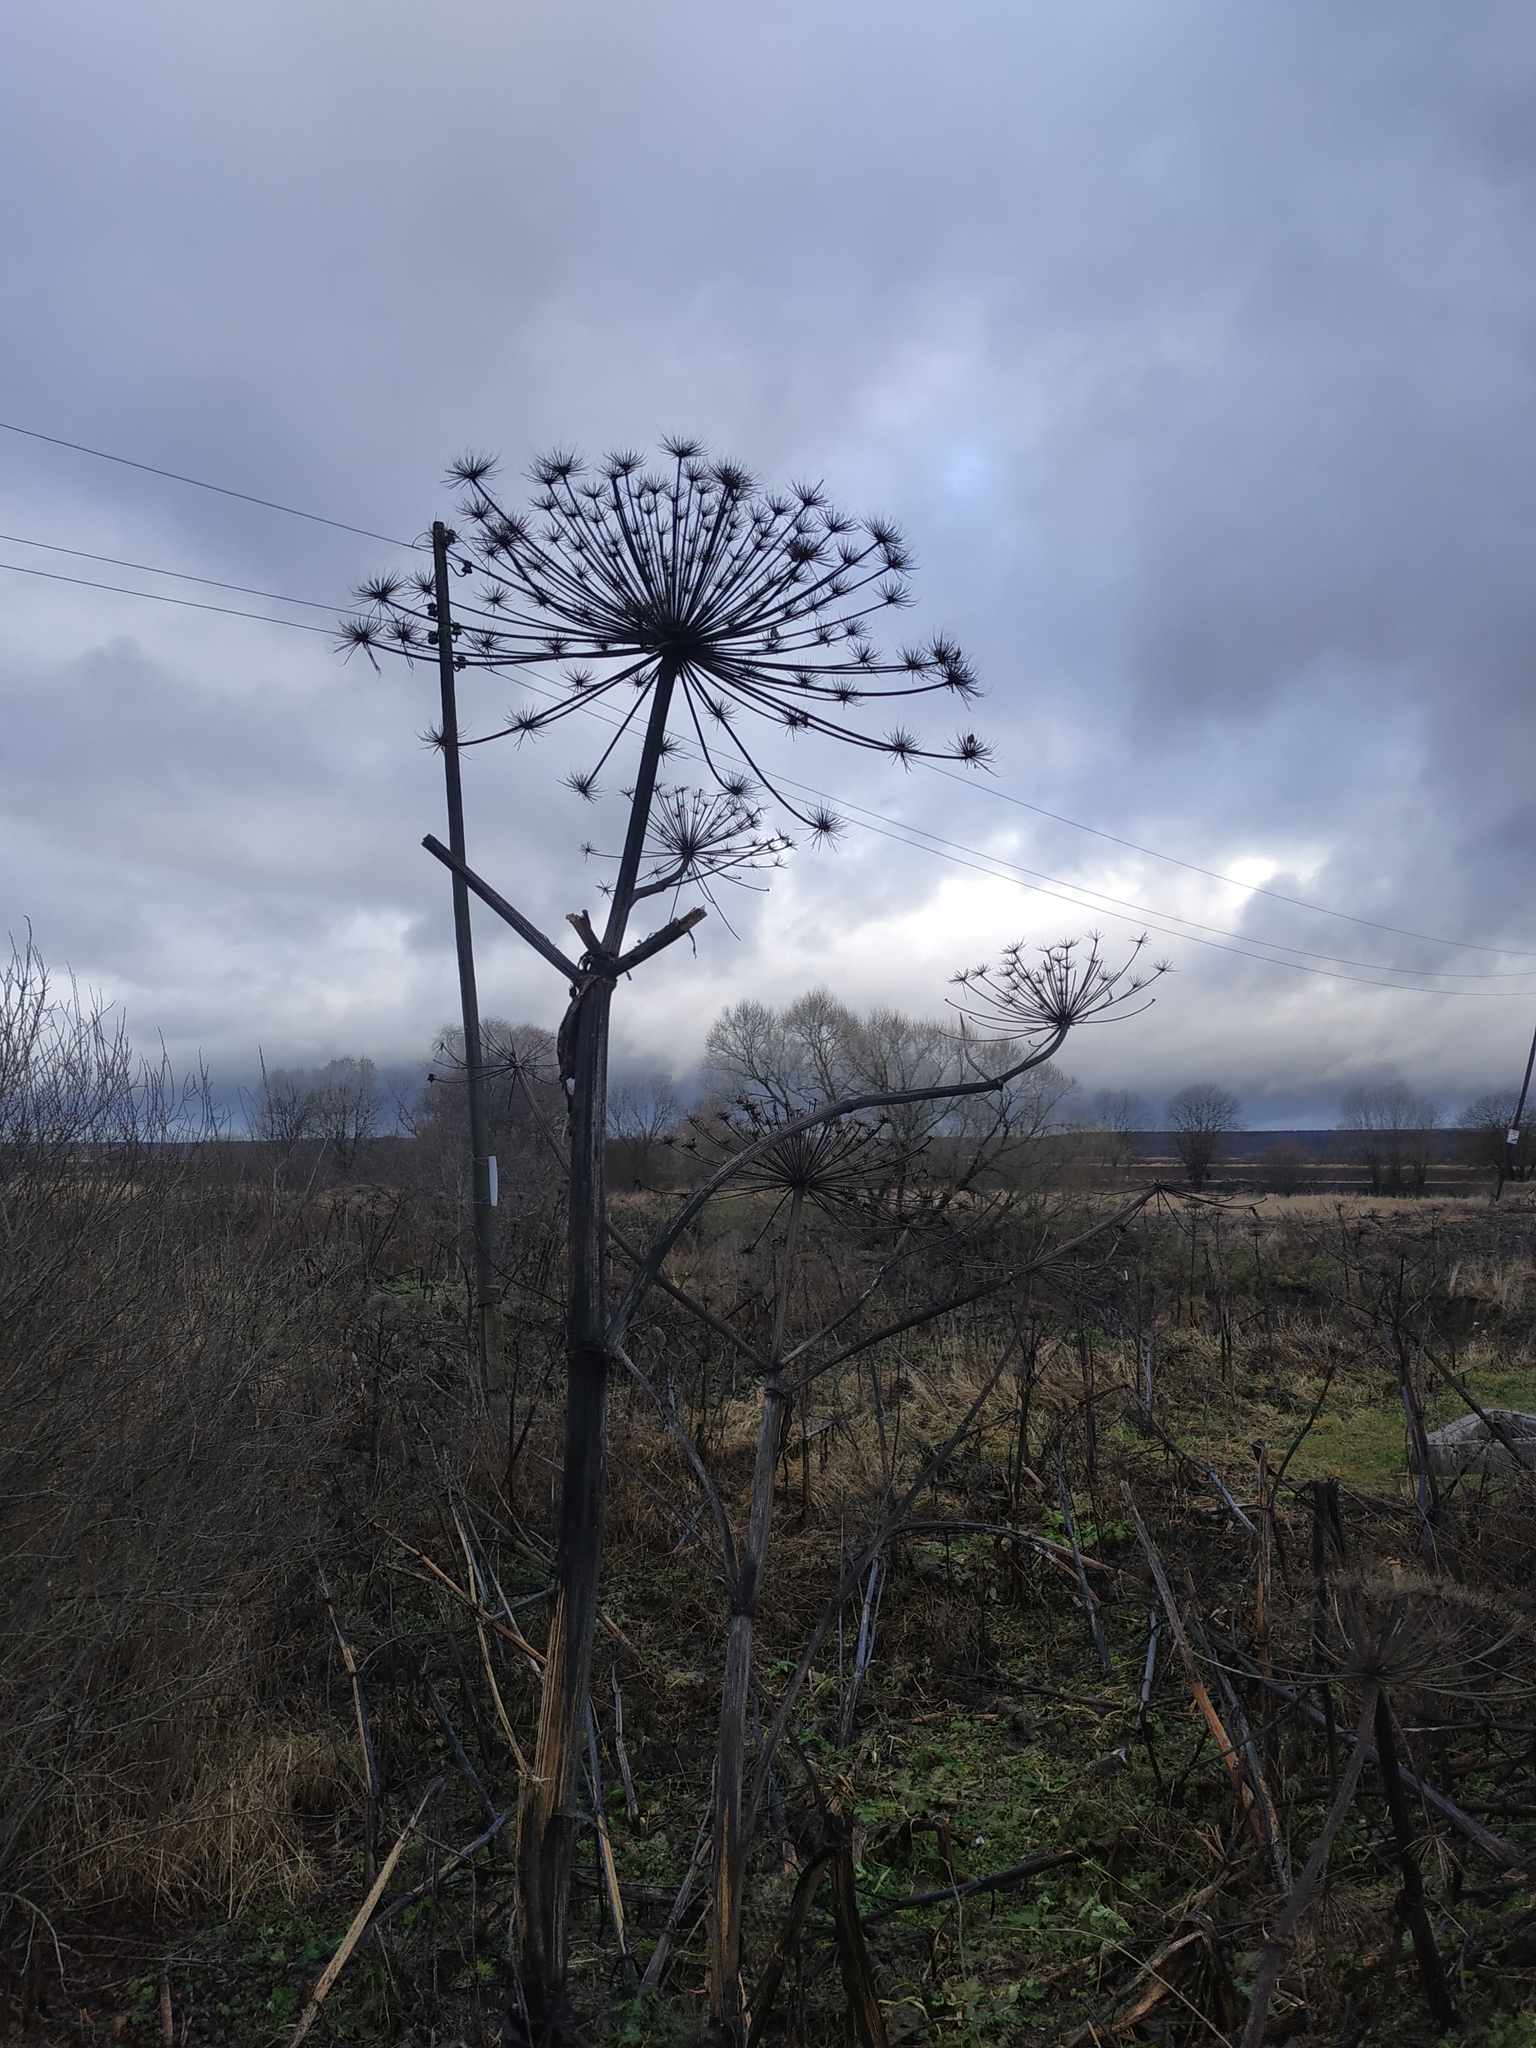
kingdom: Plantae
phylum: Tracheophyta
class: Magnoliopsida
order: Apiales
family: Apiaceae
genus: Heracleum
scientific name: Heracleum sosnowskyi
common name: Sosnowsky's hogweed
